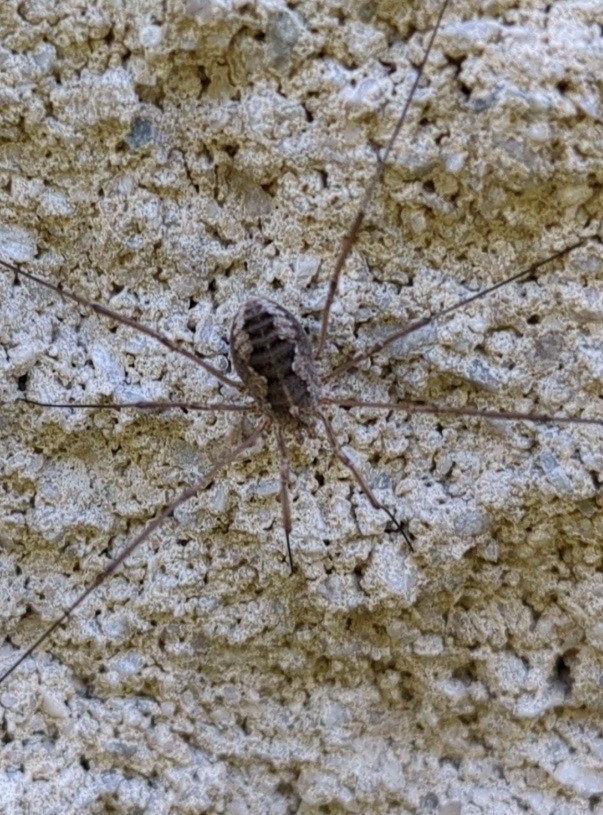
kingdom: Animalia
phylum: Arthropoda
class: Arachnida
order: Opiliones
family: Phalangiidae
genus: Phalangium
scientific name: Phalangium opilio
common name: Daddy longleg
